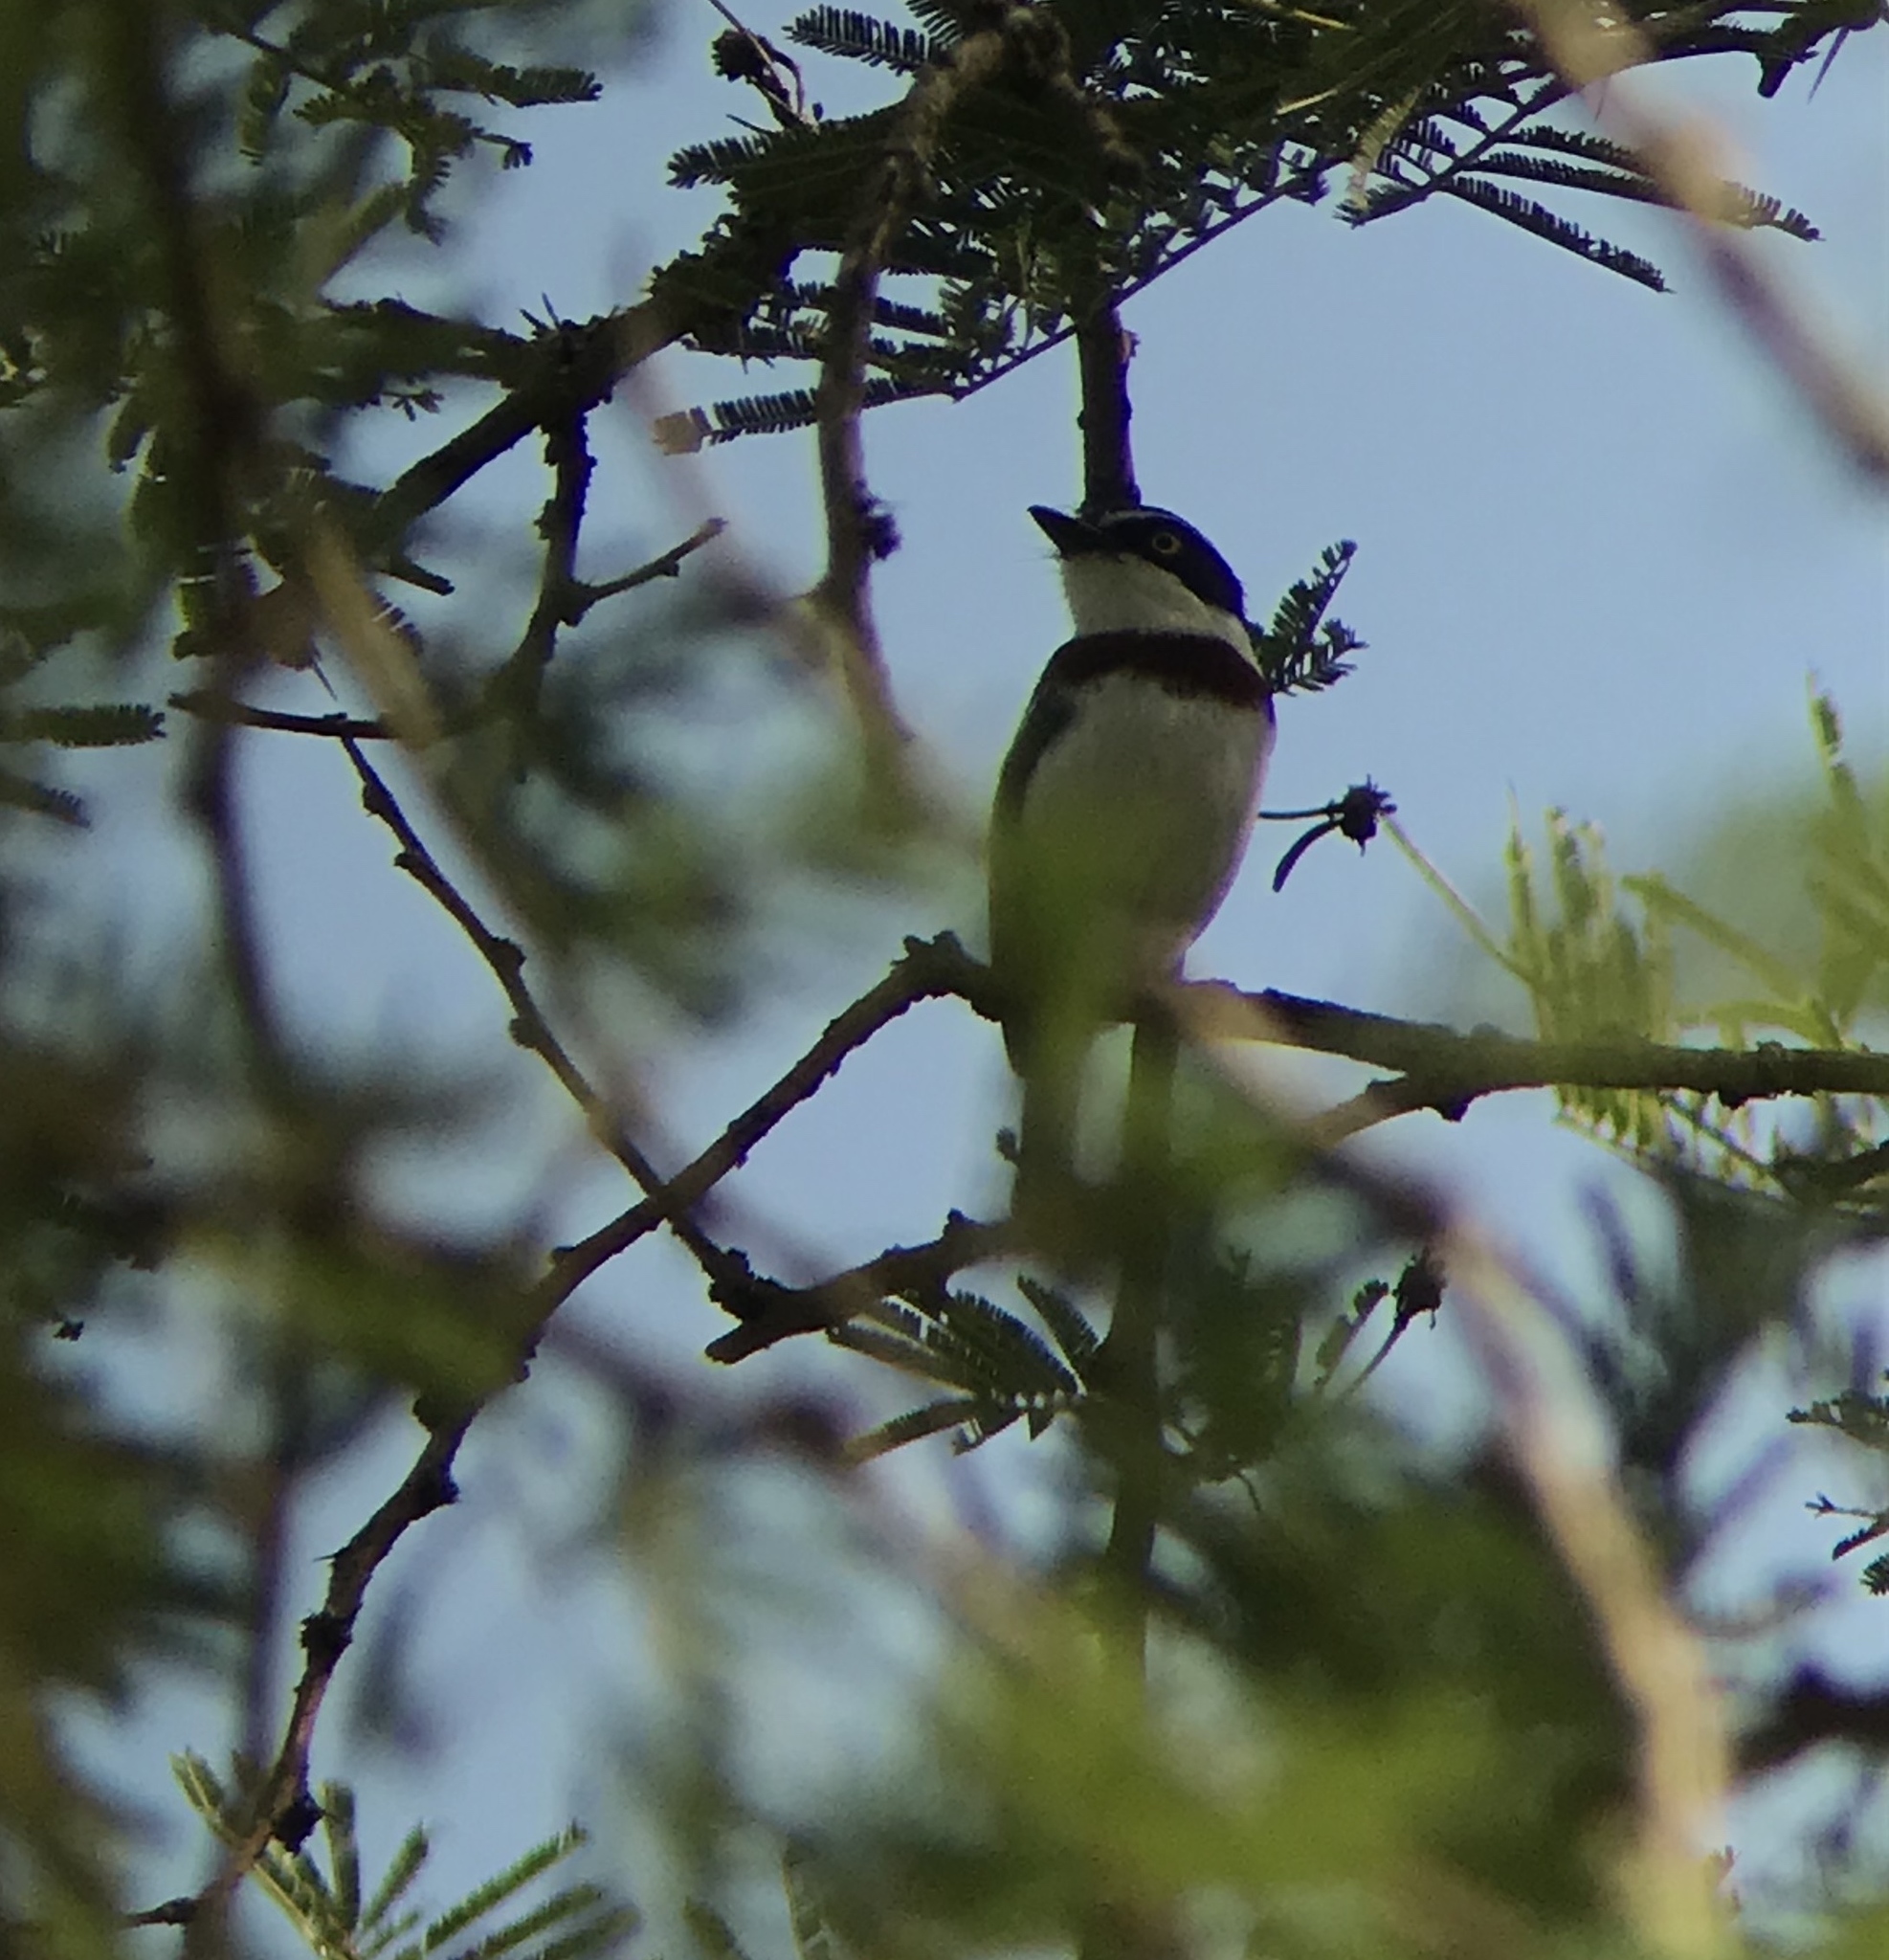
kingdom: Animalia
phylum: Chordata
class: Aves
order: Passeriformes
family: Platysteiridae
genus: Batis
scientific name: Batis erlangeri
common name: Western black-headed batis
